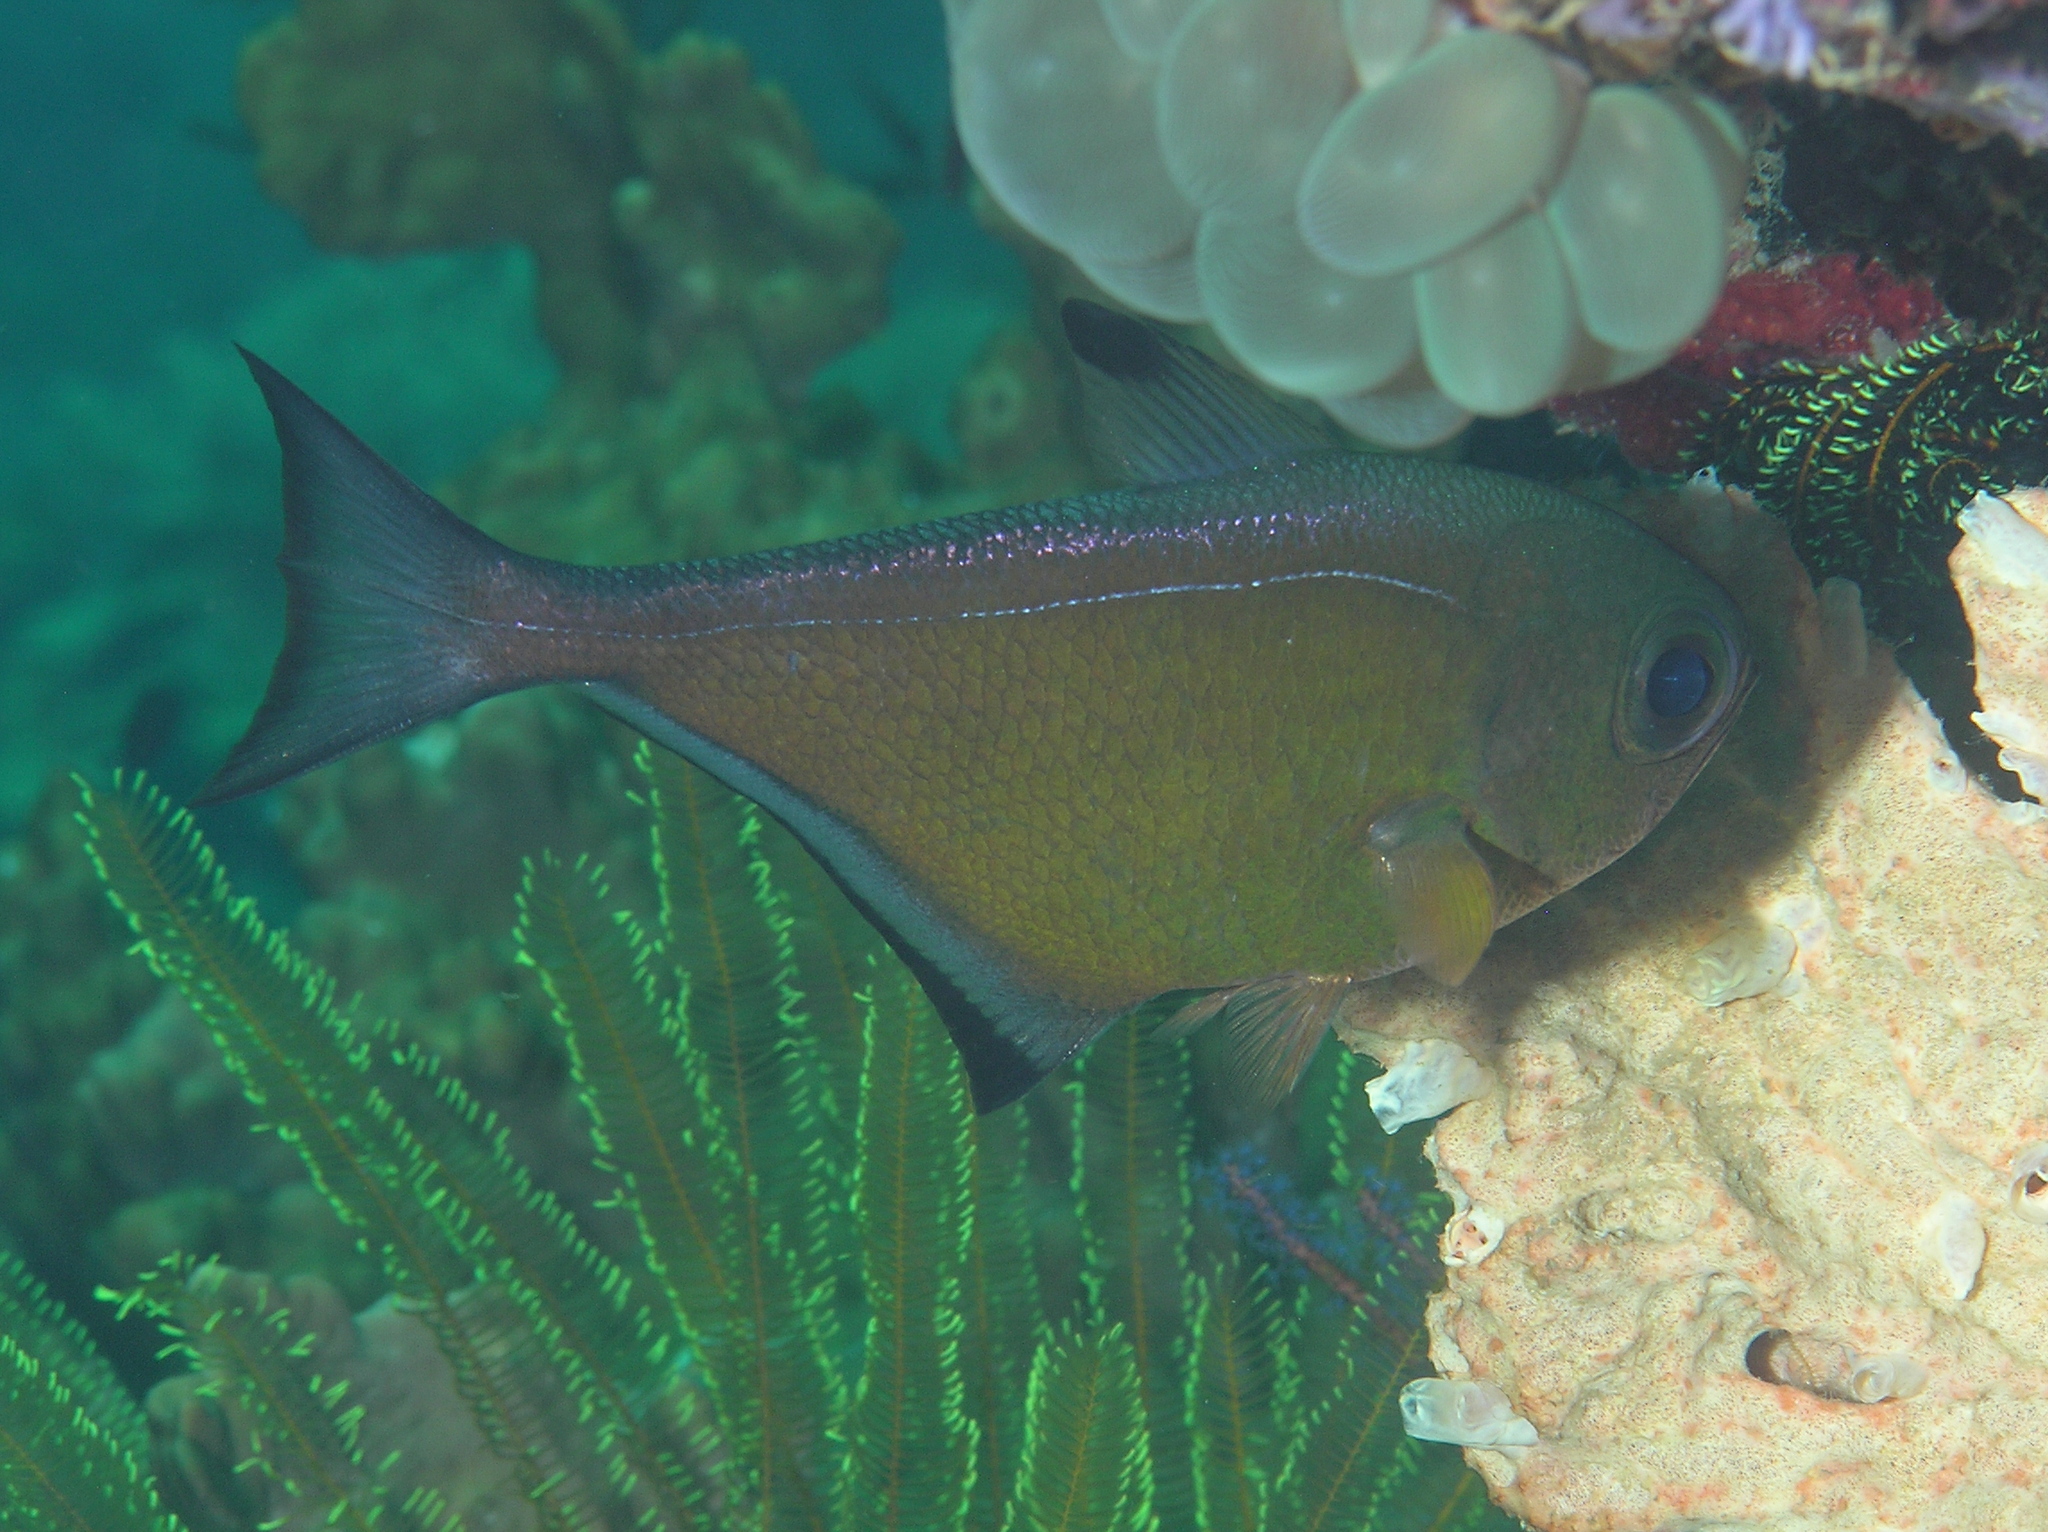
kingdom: Animalia
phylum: Chordata
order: Perciformes
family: Pempheridae
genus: Pempheris
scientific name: Pempheris vanicolensis
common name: Vanikoro sweeper
